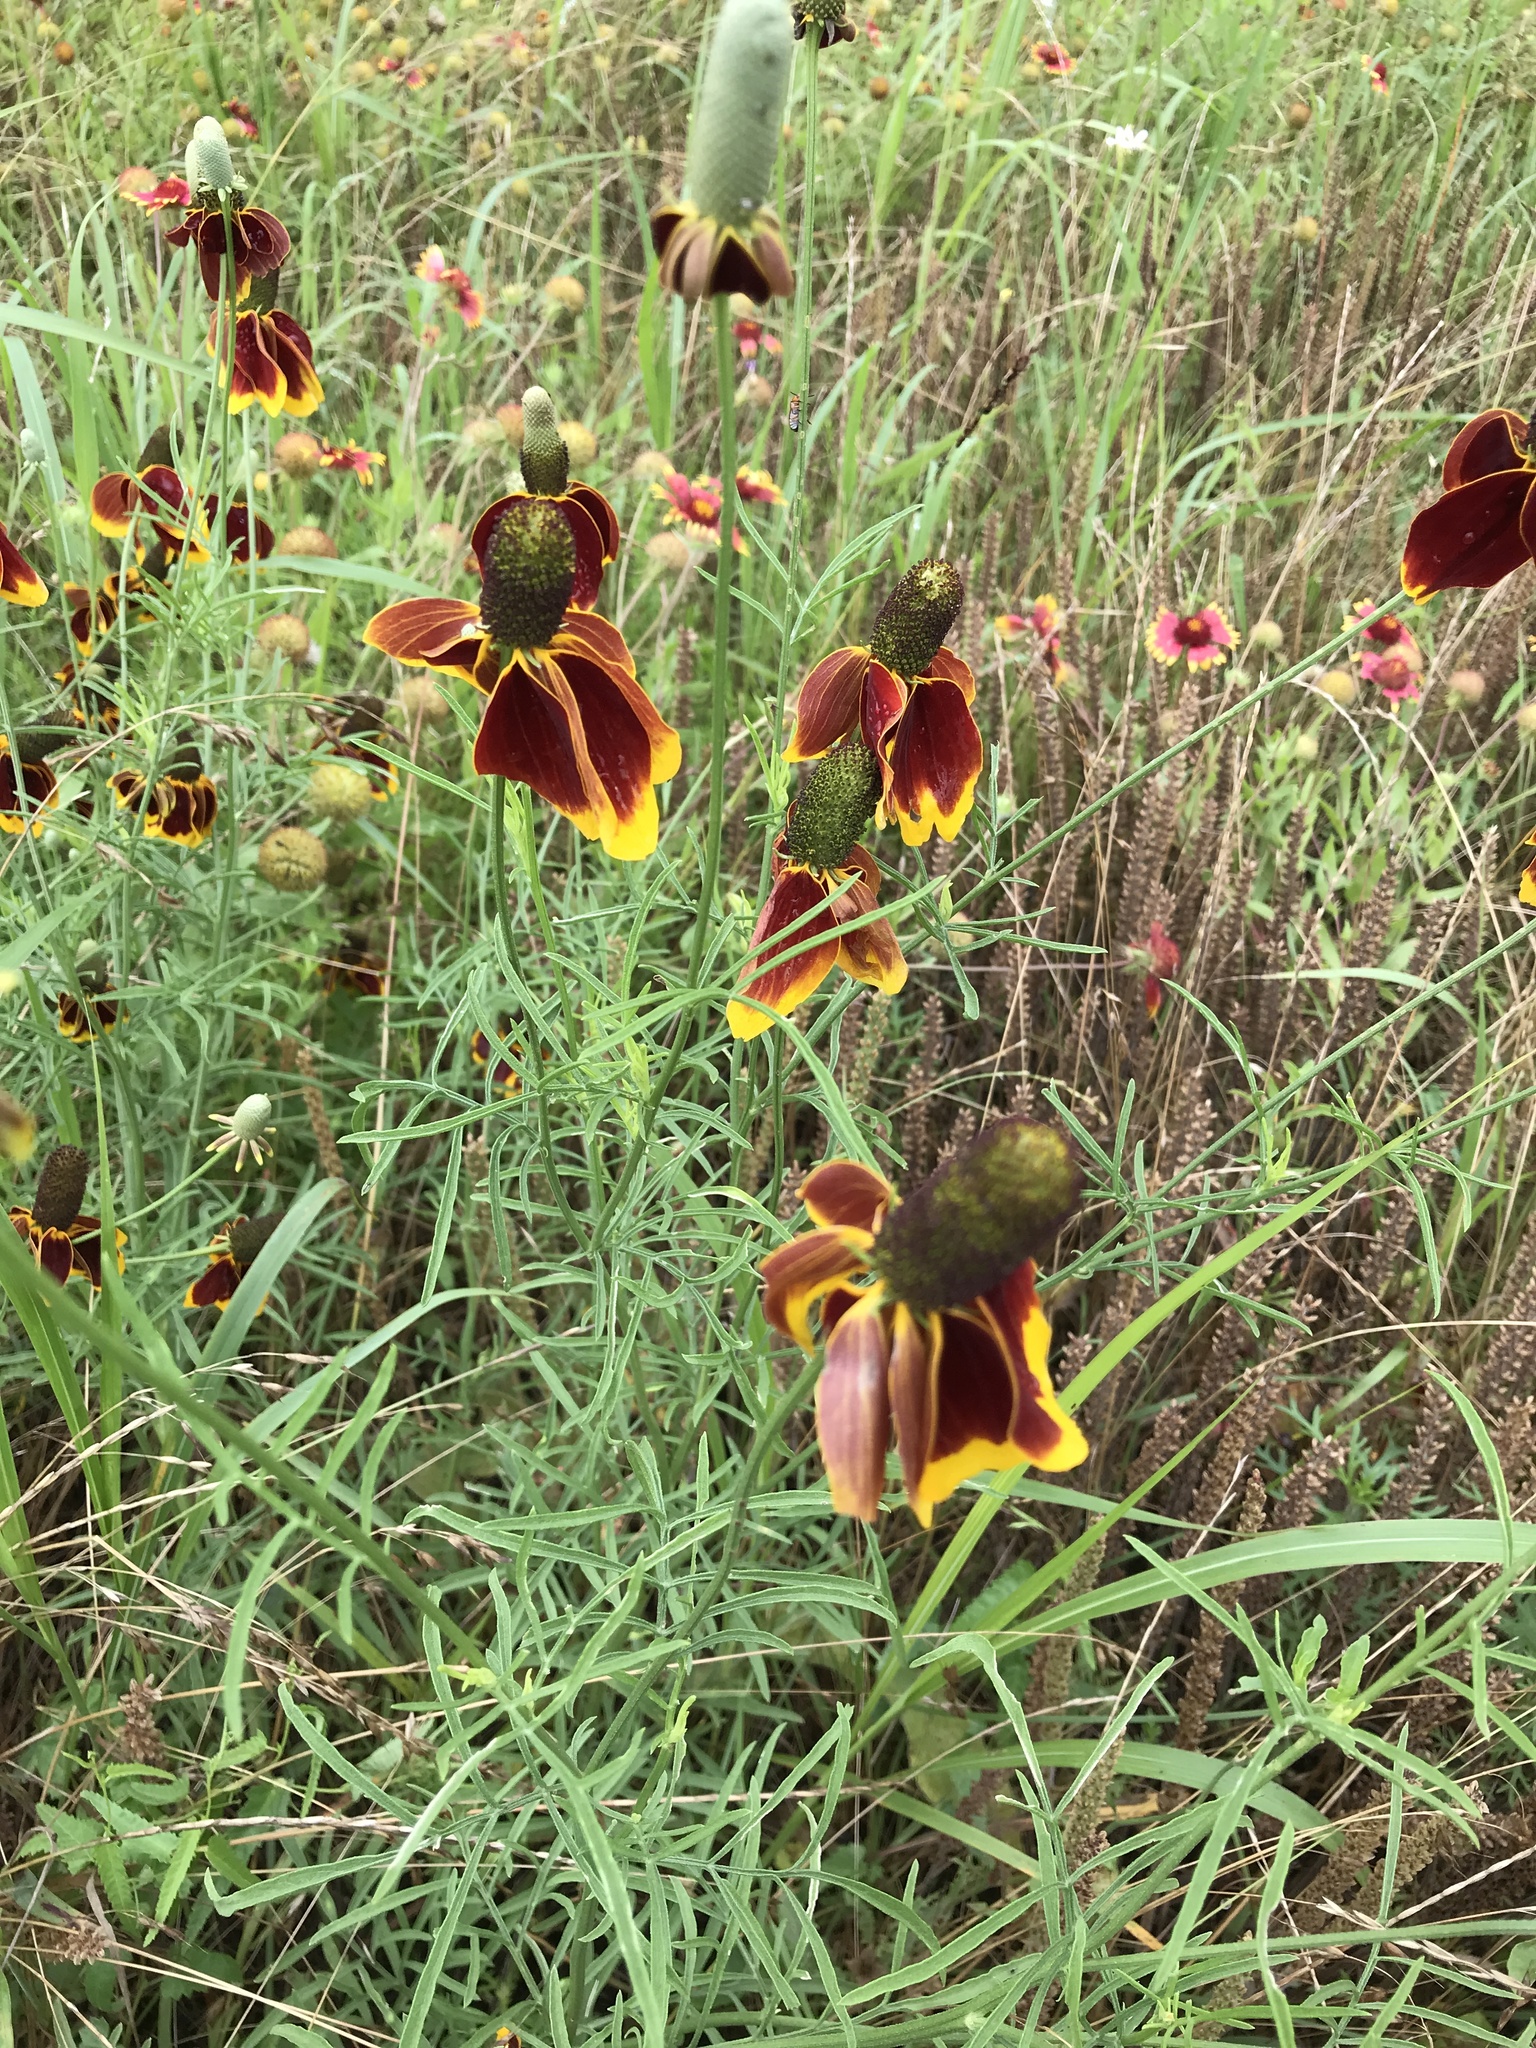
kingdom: Plantae
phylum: Tracheophyta
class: Magnoliopsida
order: Asterales
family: Asteraceae
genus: Ratibida
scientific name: Ratibida columnifera
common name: Prairie coneflower
